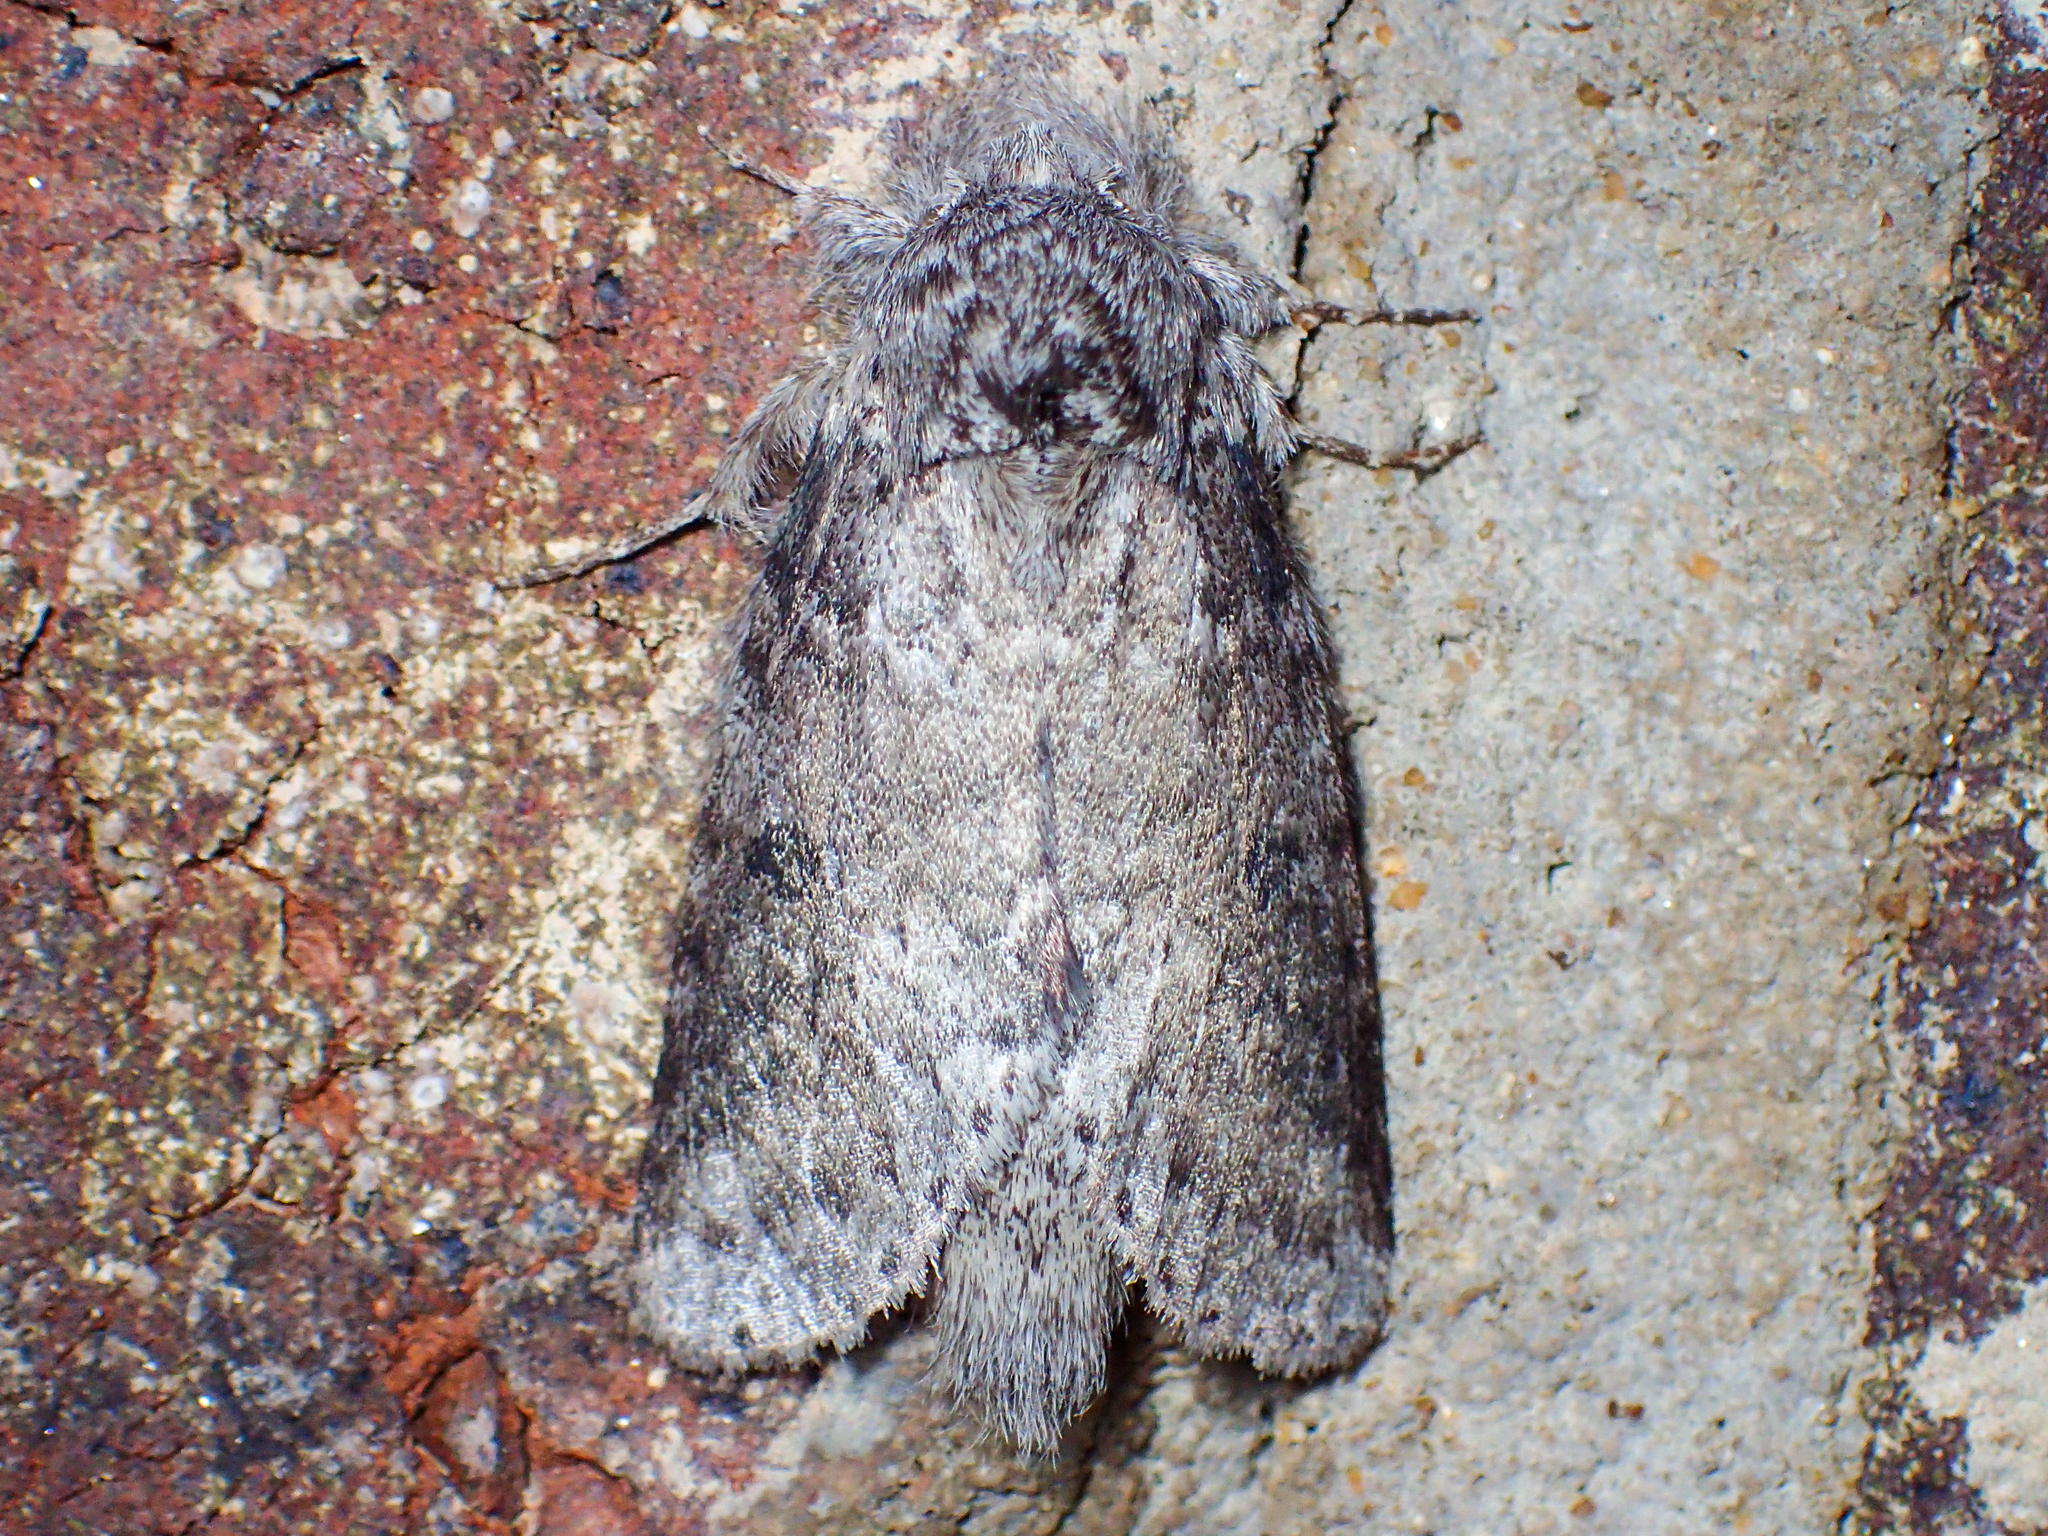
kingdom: Animalia
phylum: Arthropoda
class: Insecta
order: Lepidoptera
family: Notodontidae
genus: Lochmaeus
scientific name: Lochmaeus manteo
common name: Variable oakleaf caterpillar moth
